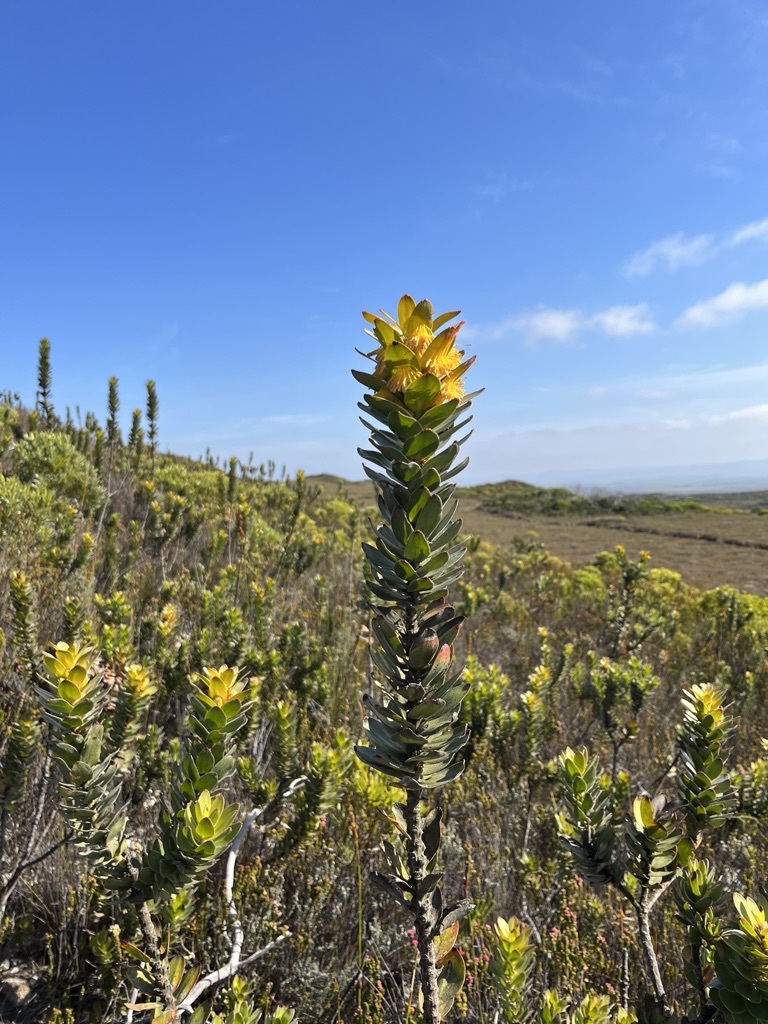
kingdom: Plantae
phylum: Tracheophyta
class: Magnoliopsida
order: Proteales
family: Proteaceae
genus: Mimetes
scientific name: Mimetes saxatilis
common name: Limestone pagoda
